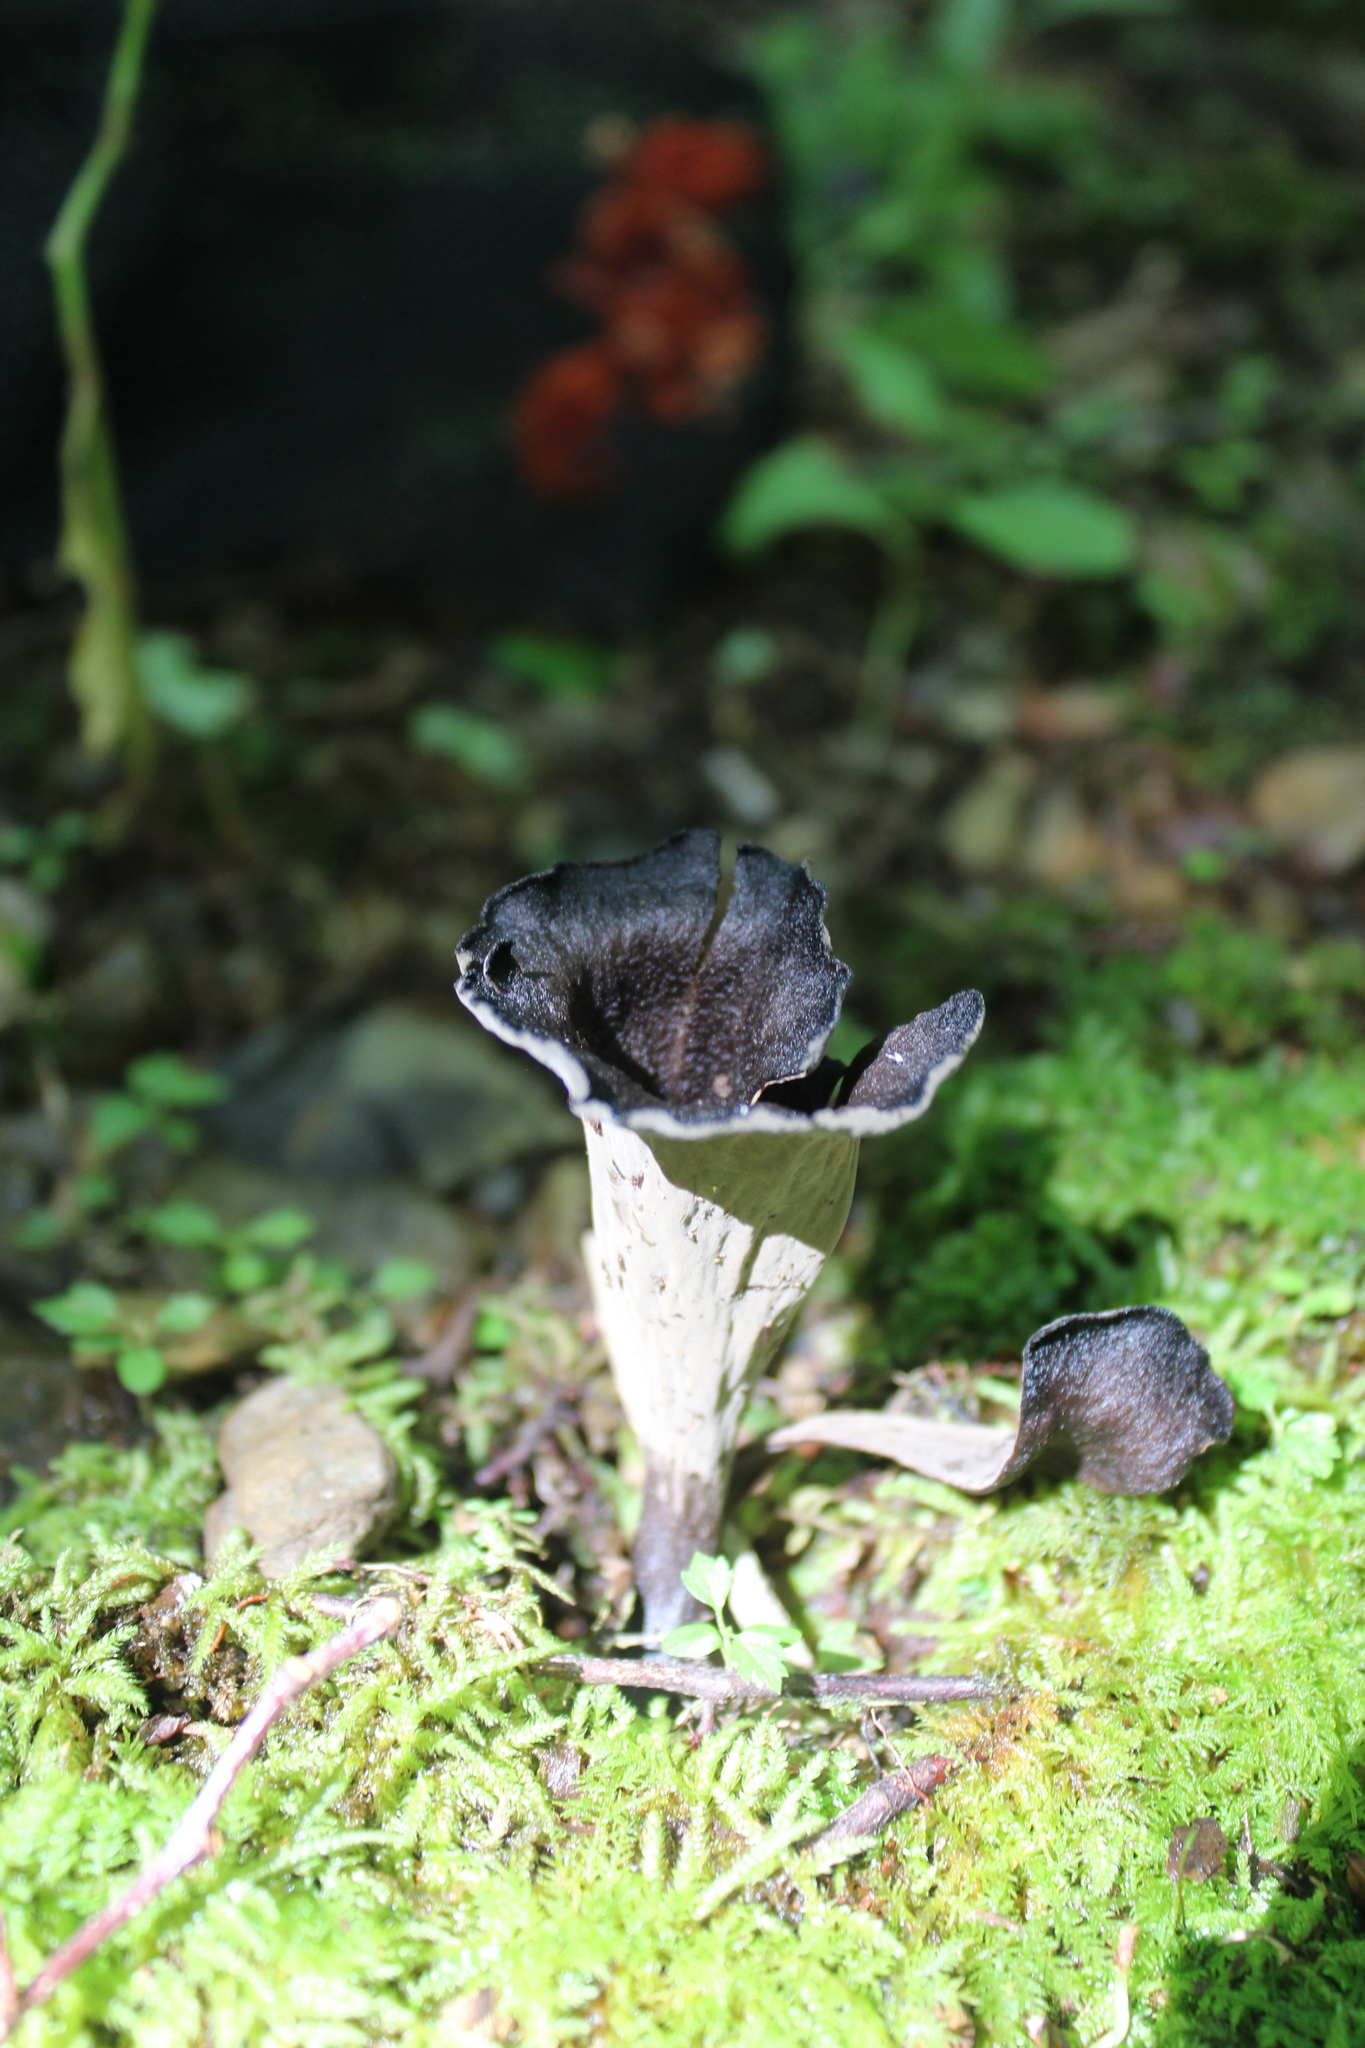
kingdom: Fungi
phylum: Basidiomycota
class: Agaricomycetes
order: Cantharellales
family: Hydnaceae
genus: Craterellus
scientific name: Craterellus cornucopioides
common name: Horn of plenty
